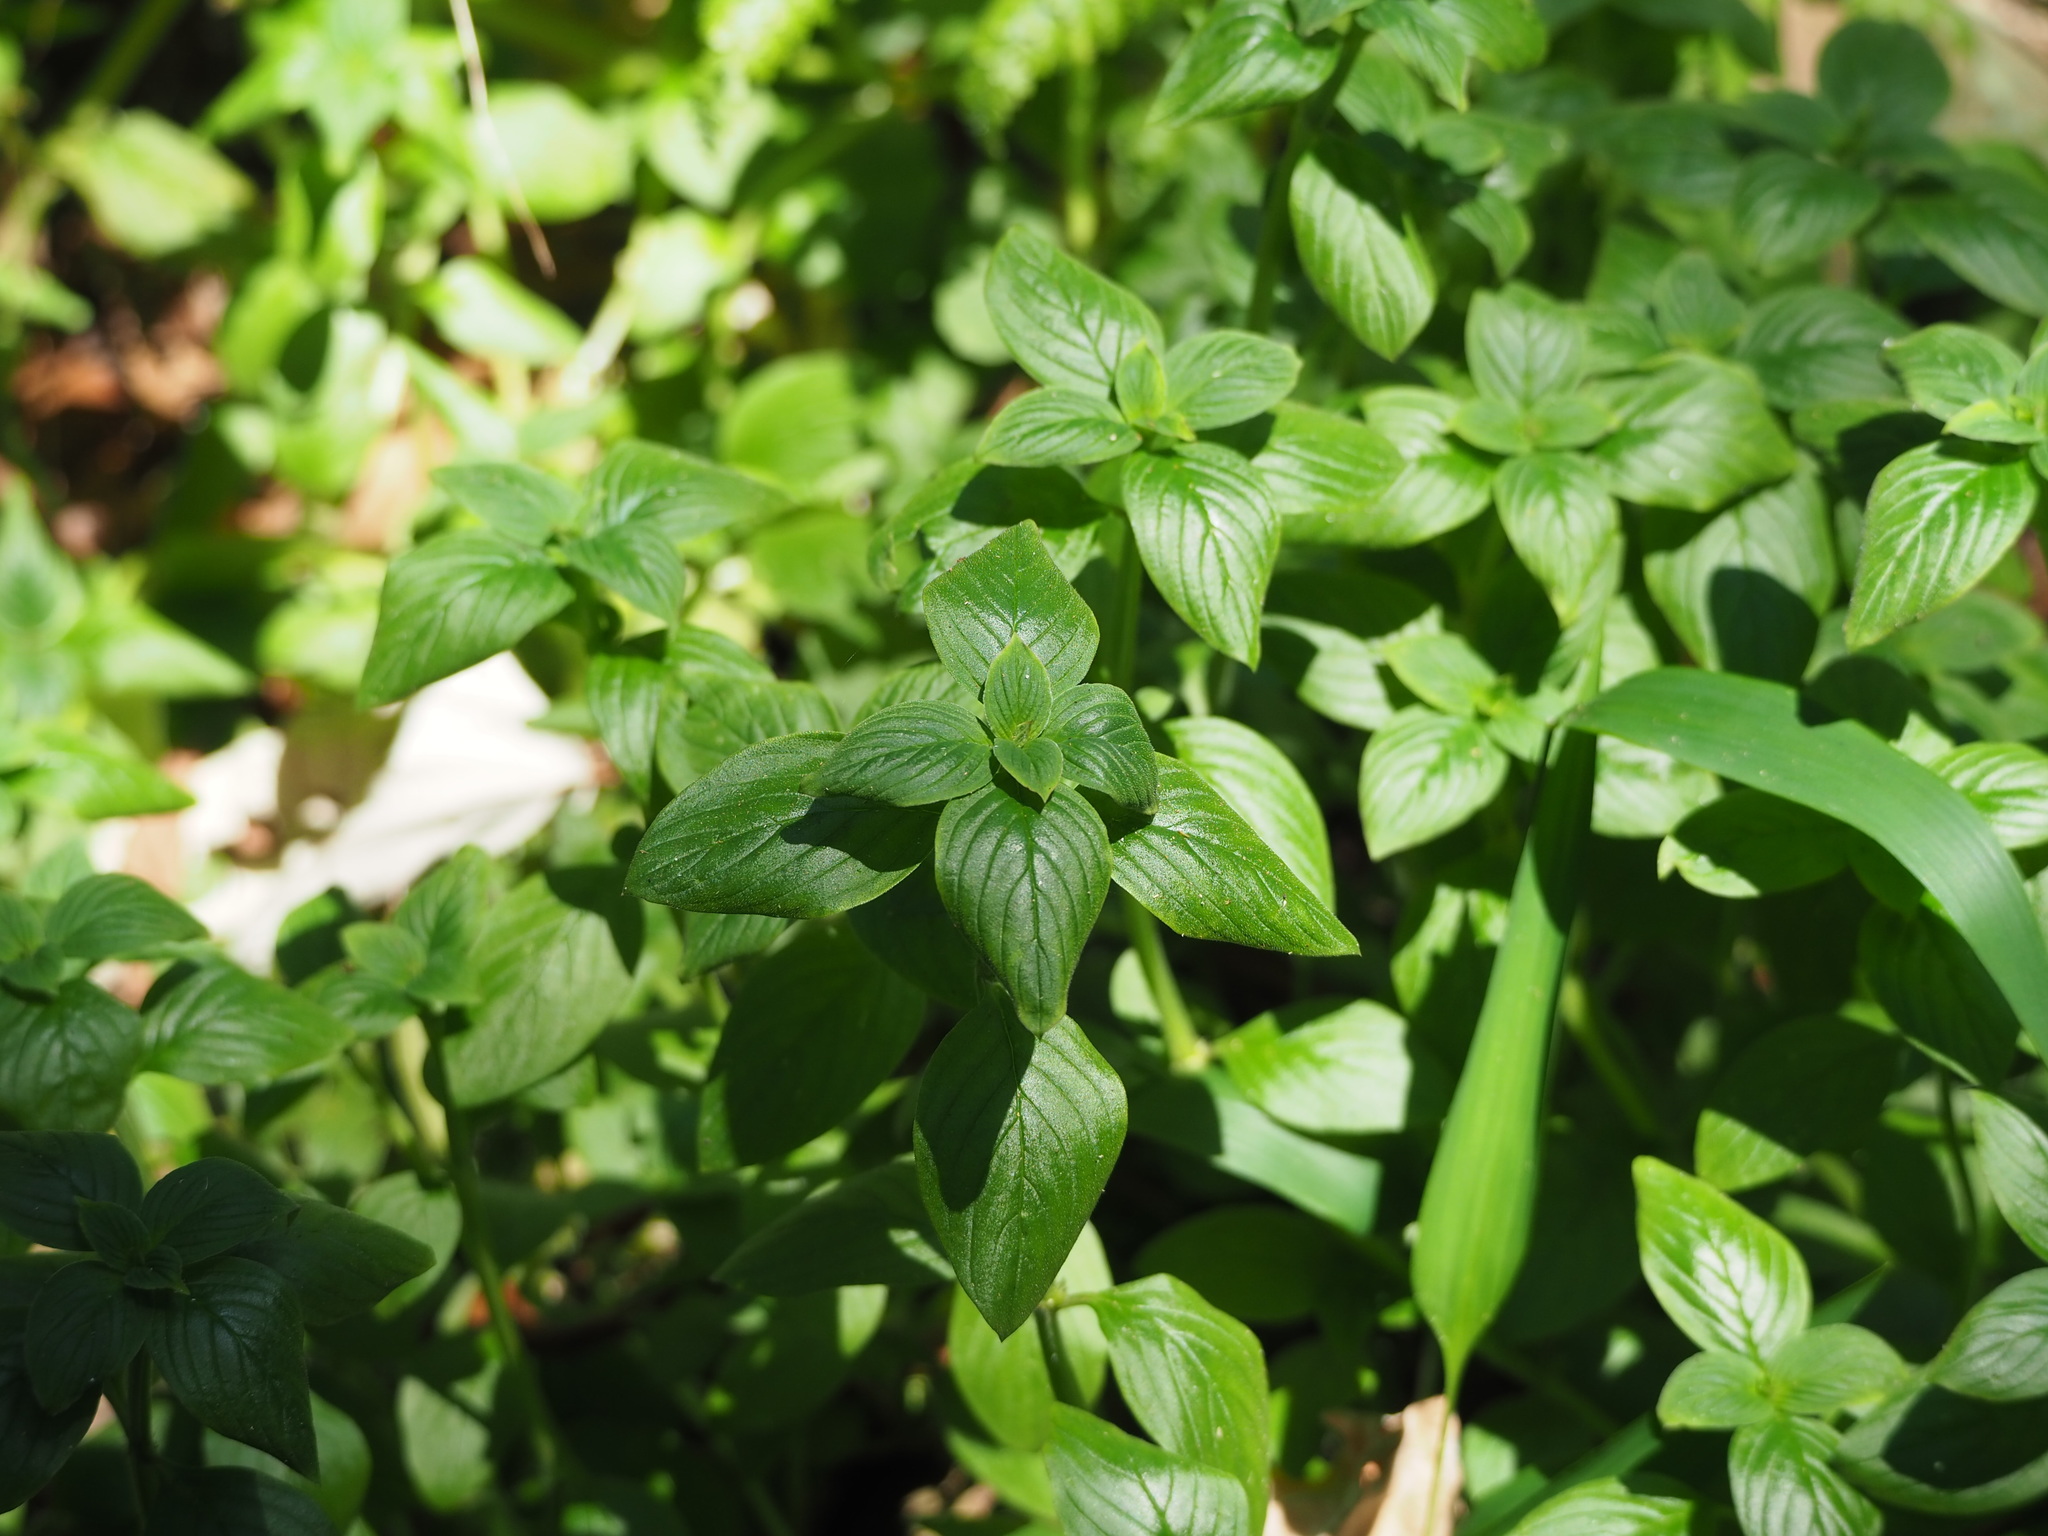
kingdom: Plantae
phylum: Tracheophyta
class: Magnoliopsida
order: Gentianales
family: Rubiaceae
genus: Spermacoce
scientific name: Spermacoce latifolia
